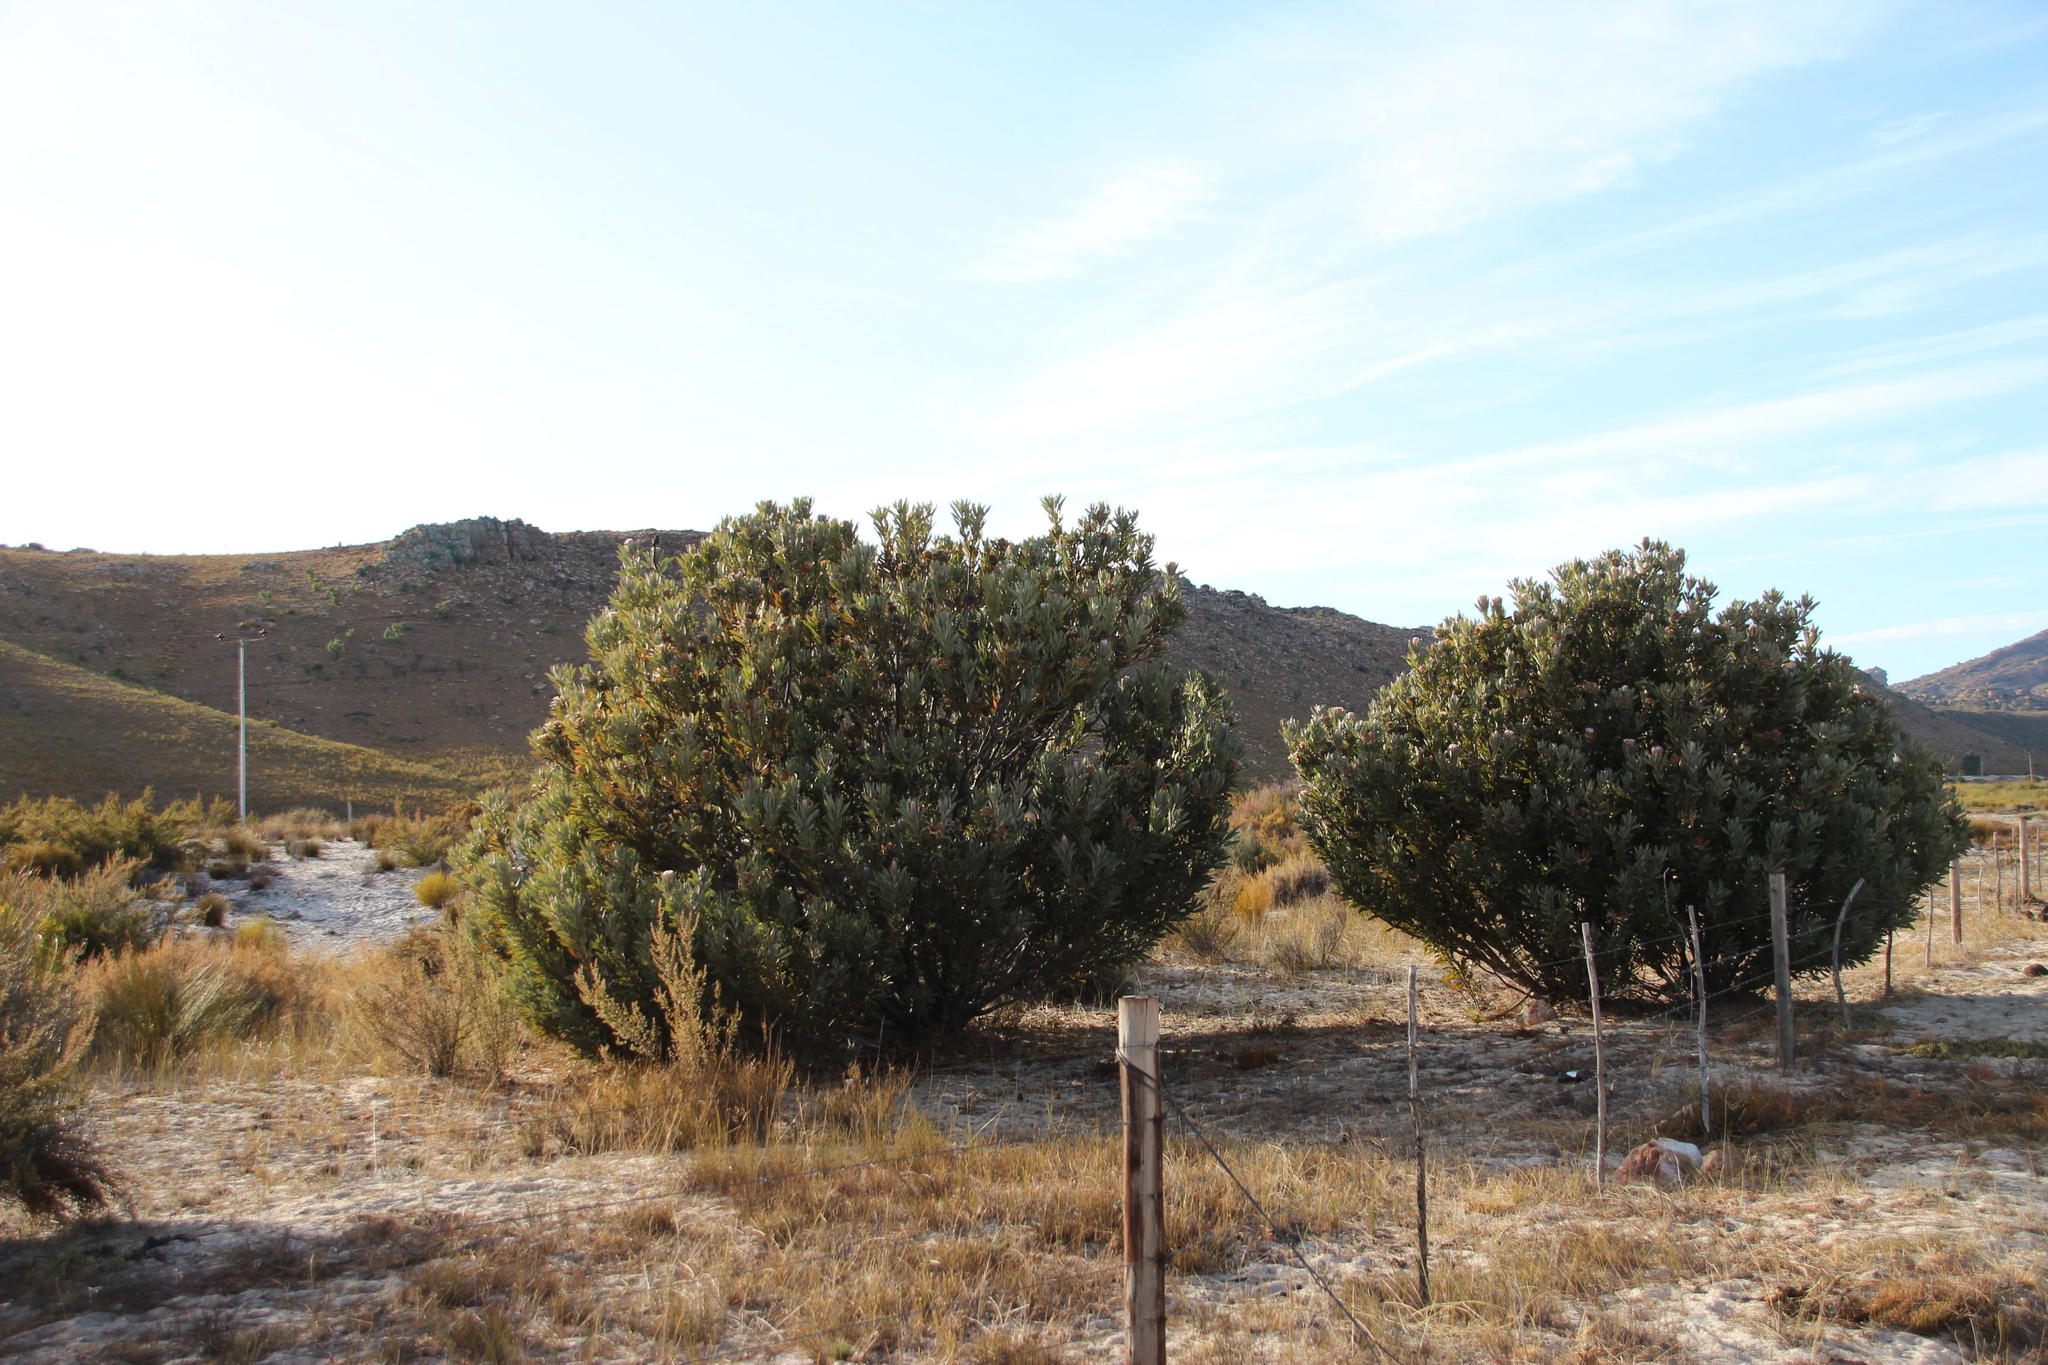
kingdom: Plantae
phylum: Tracheophyta
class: Magnoliopsida
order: Proteales
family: Proteaceae
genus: Protea
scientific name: Protea laurifolia
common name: Grey-leaf sugarbsh
